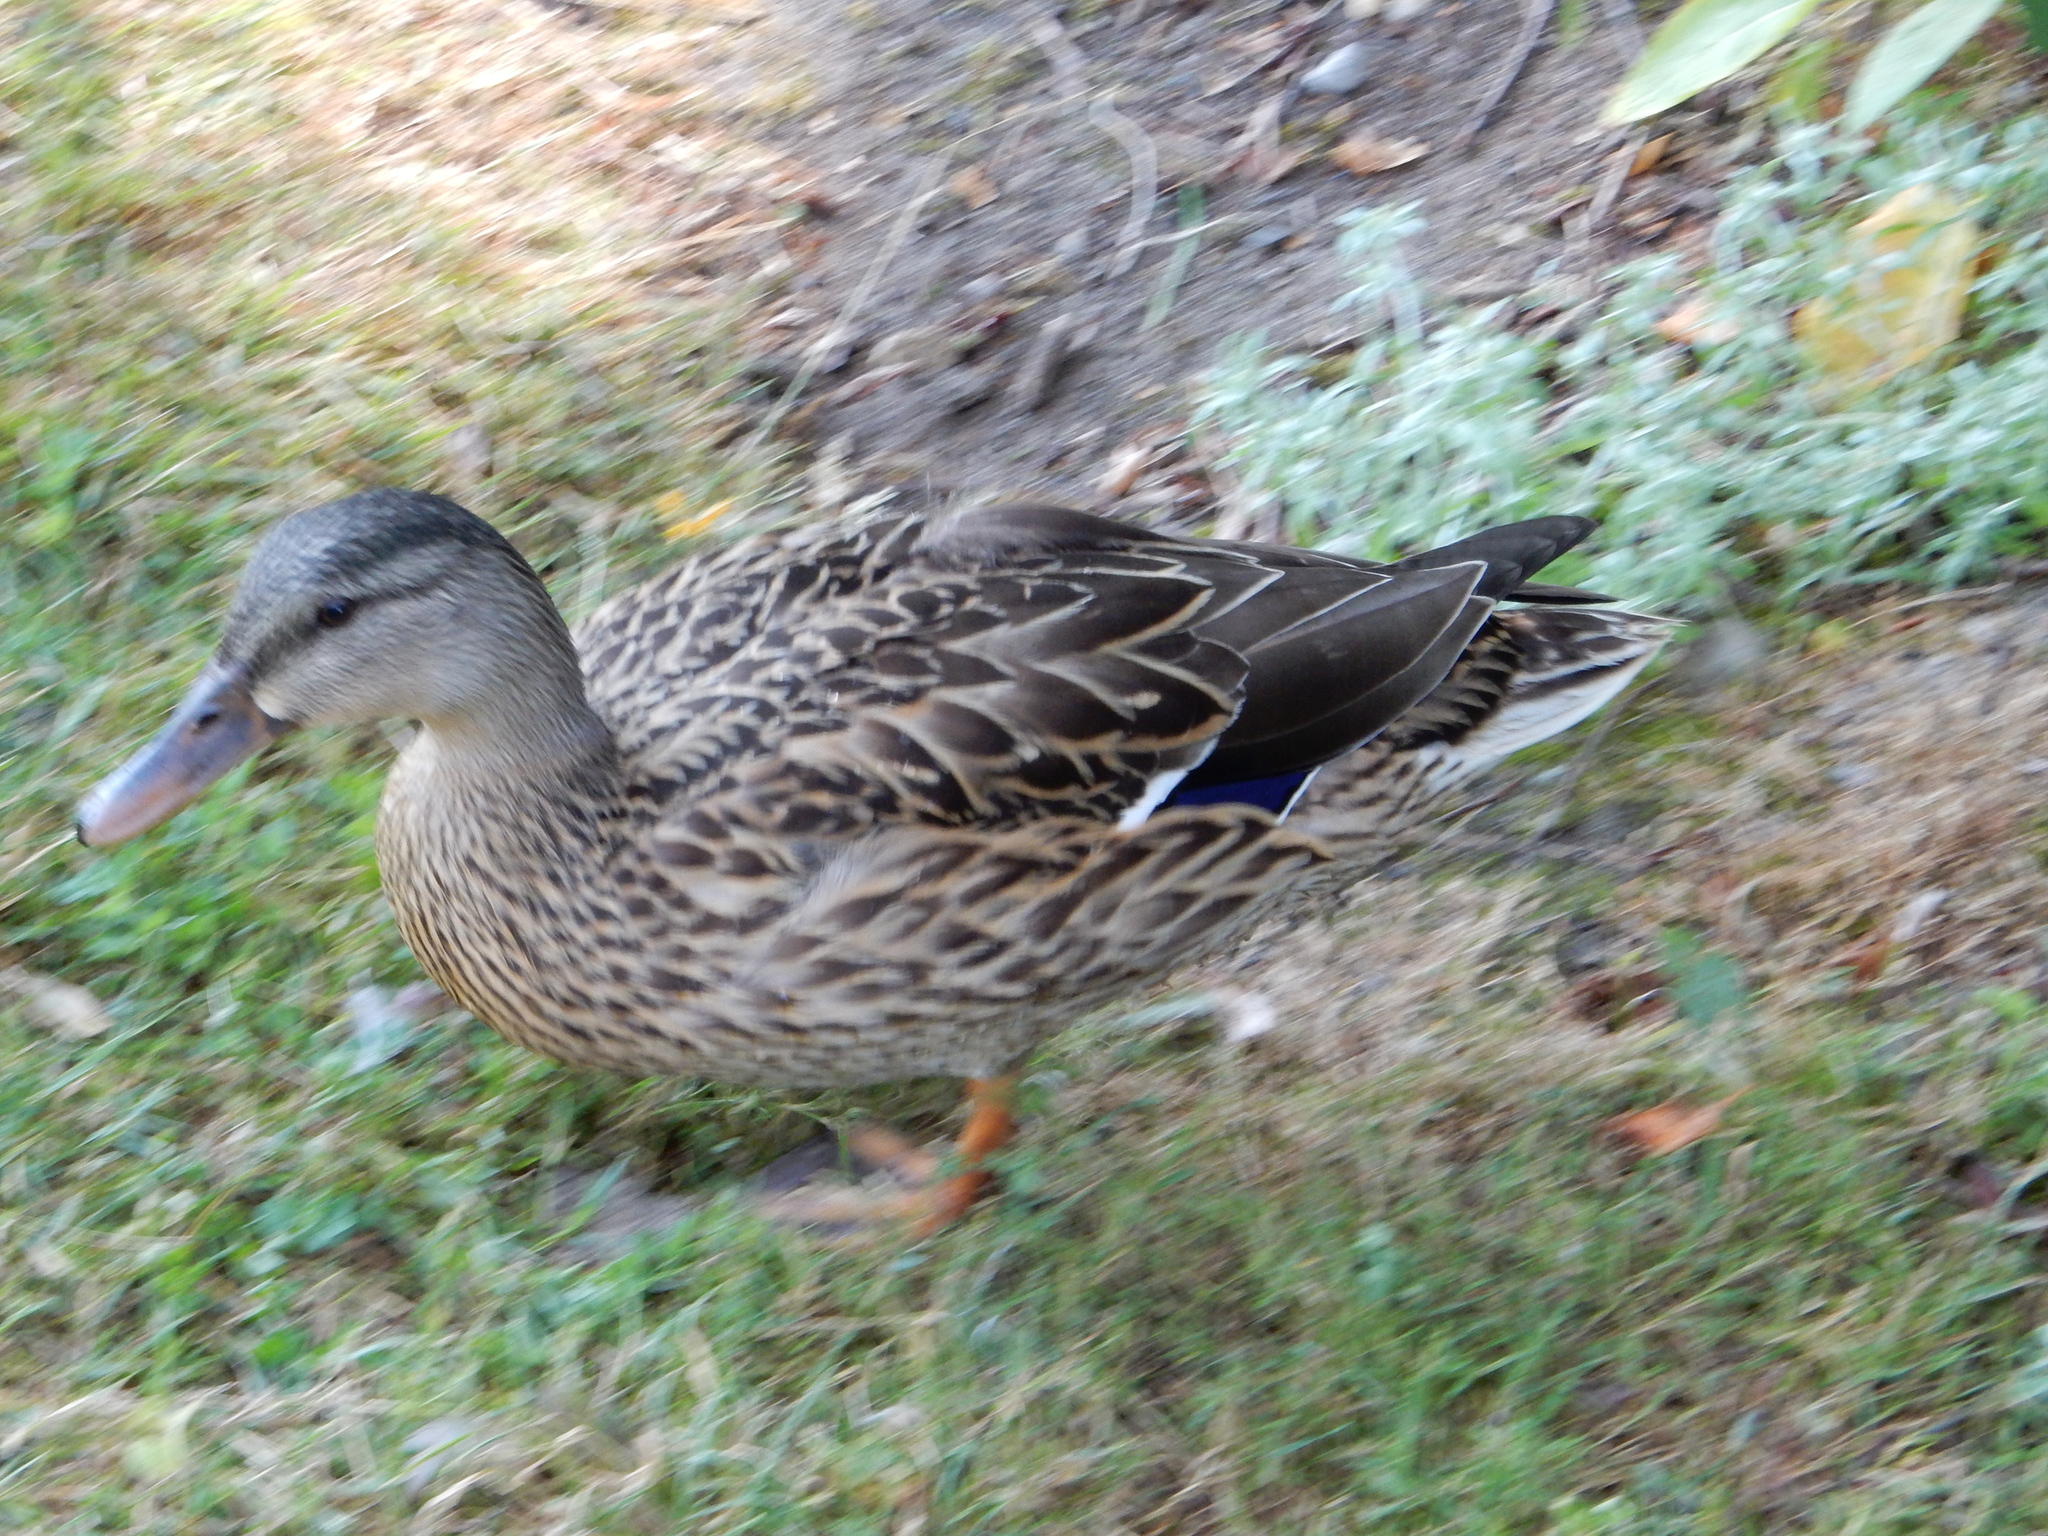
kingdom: Animalia
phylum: Chordata
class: Aves
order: Anseriformes
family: Anatidae
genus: Anas
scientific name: Anas platyrhynchos
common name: Mallard
